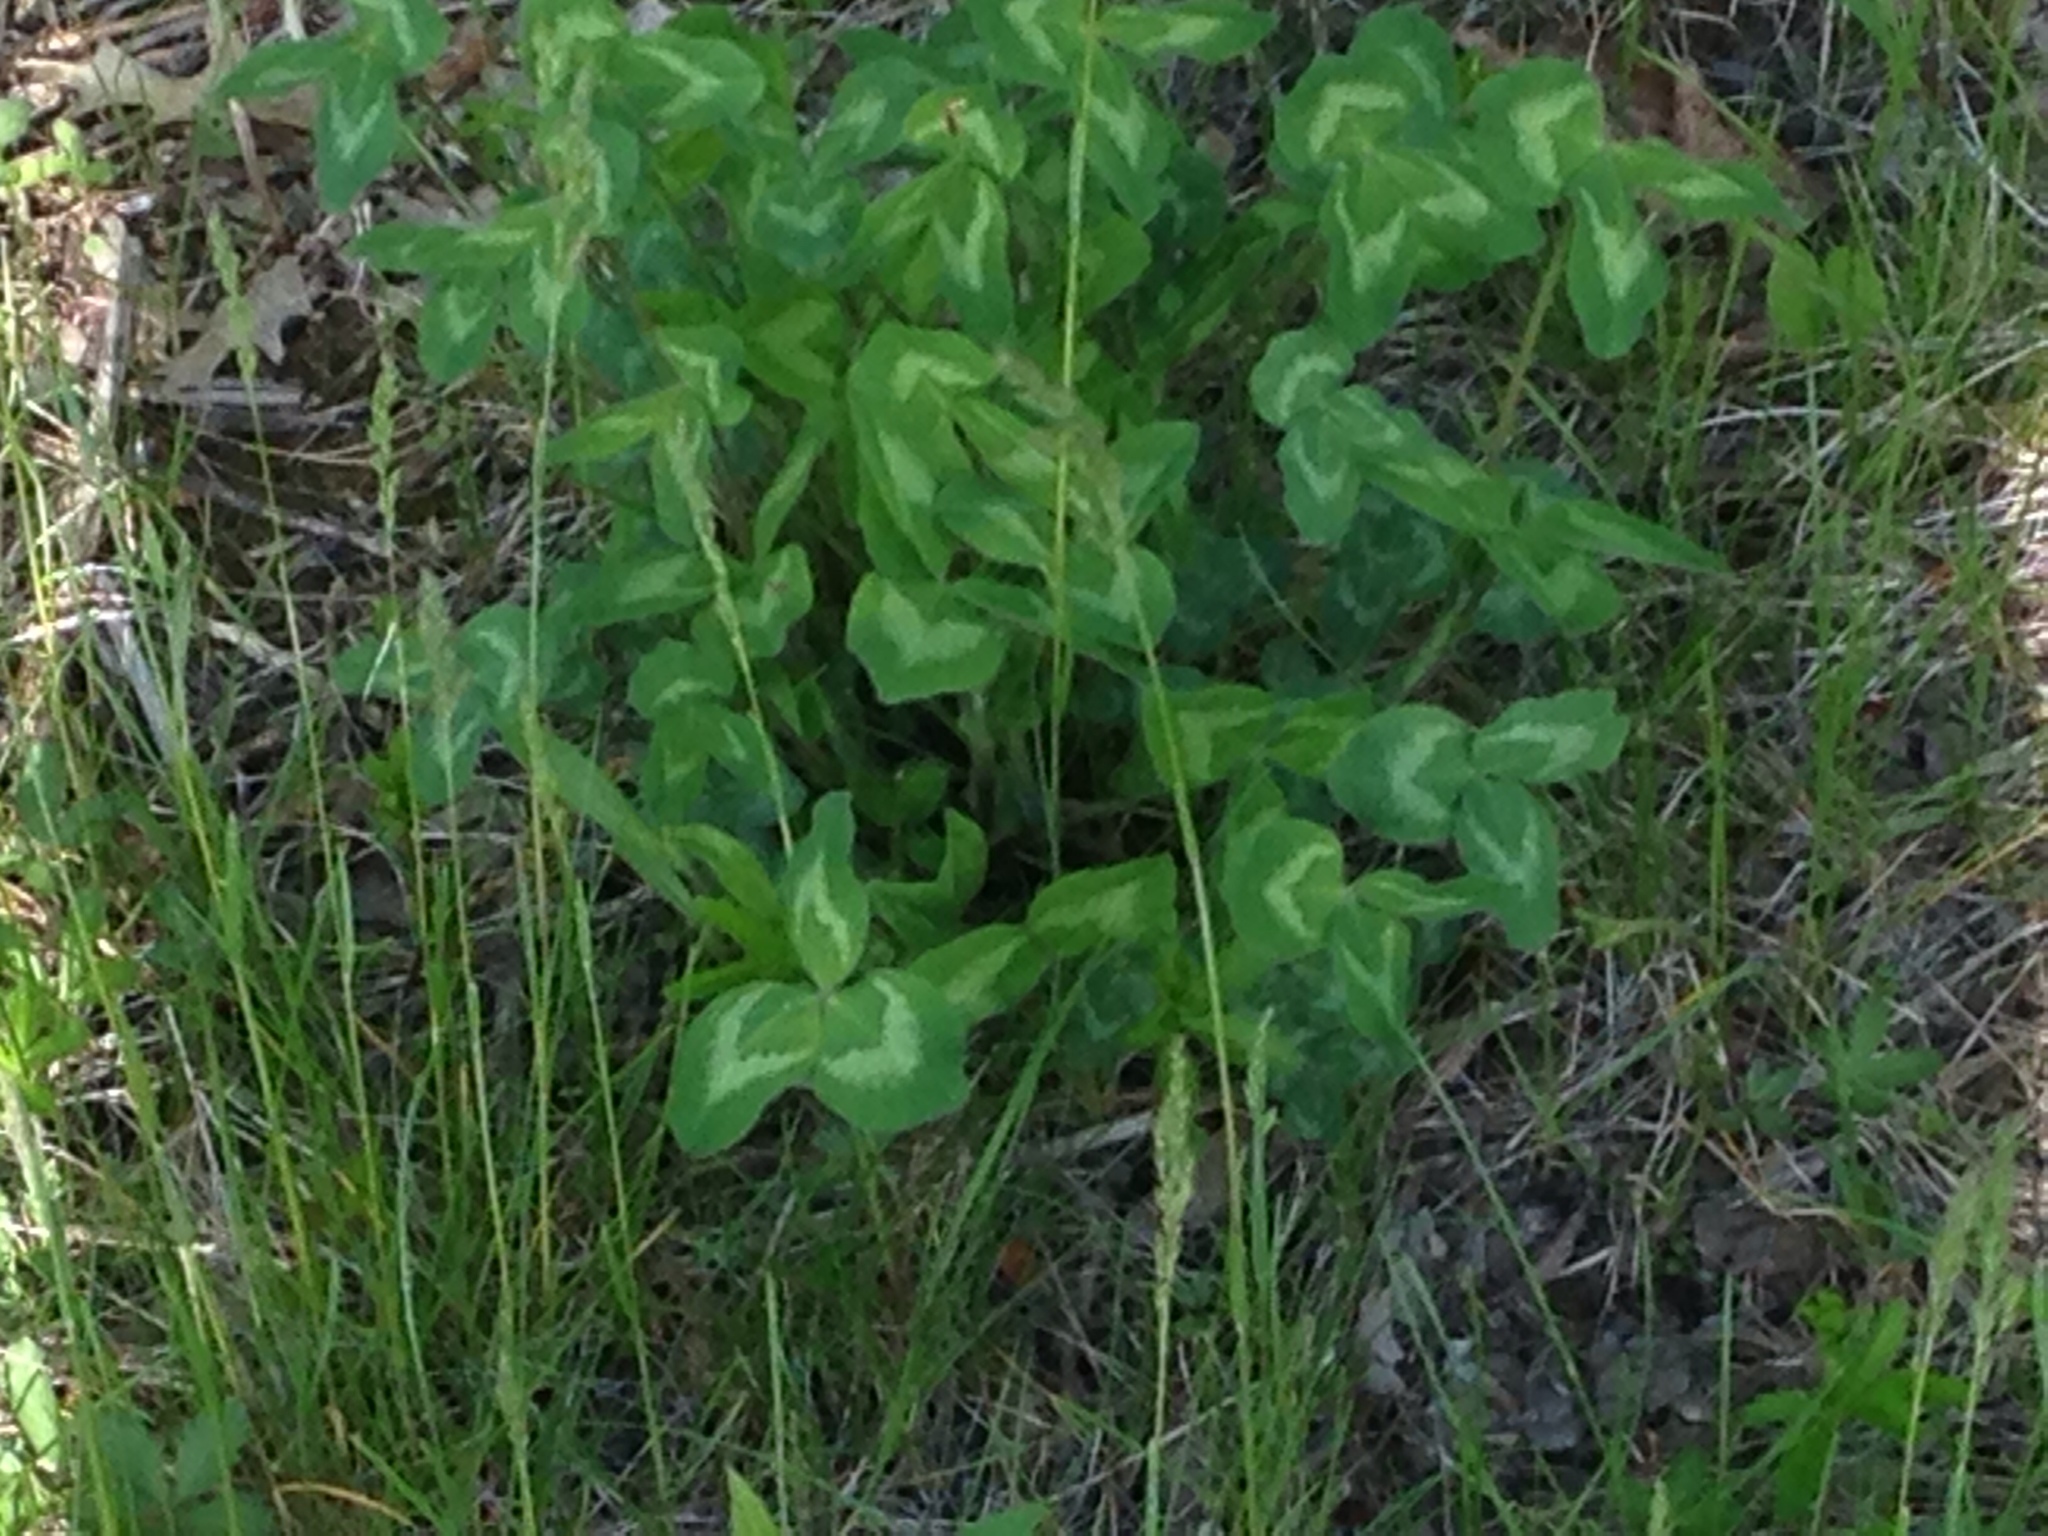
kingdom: Plantae
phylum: Tracheophyta
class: Magnoliopsida
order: Fabales
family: Fabaceae
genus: Trifolium
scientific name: Trifolium pratense
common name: Red clover
